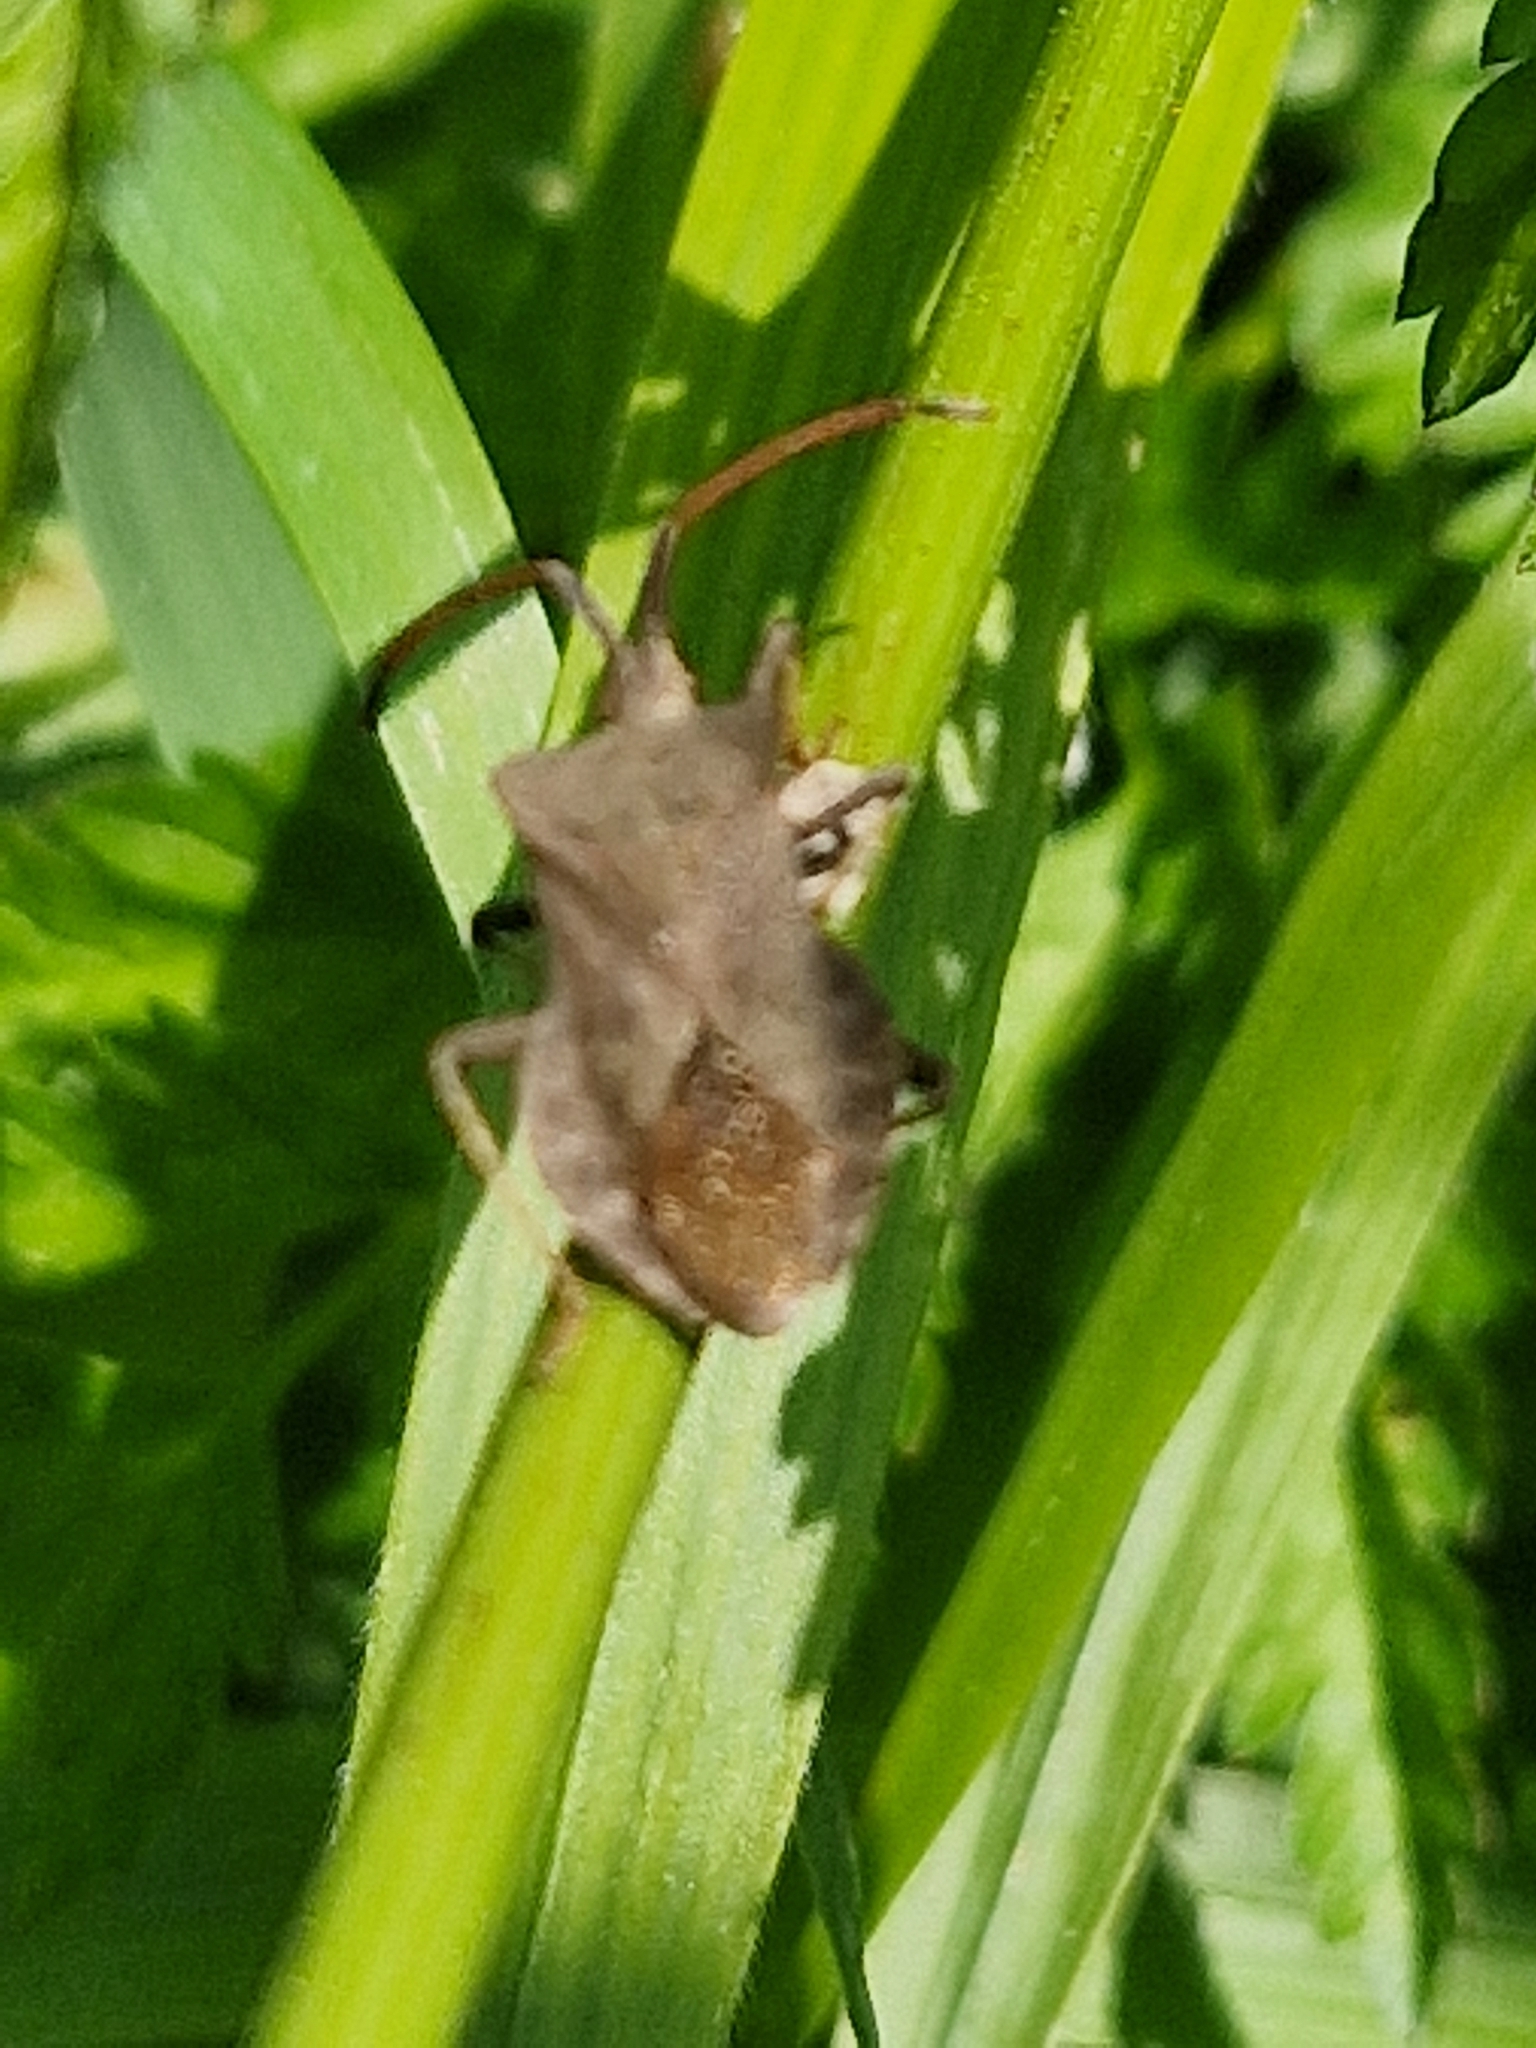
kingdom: Animalia
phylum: Arthropoda
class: Insecta
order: Hemiptera
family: Coreidae
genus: Coreus
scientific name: Coreus marginatus
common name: Dock bug
